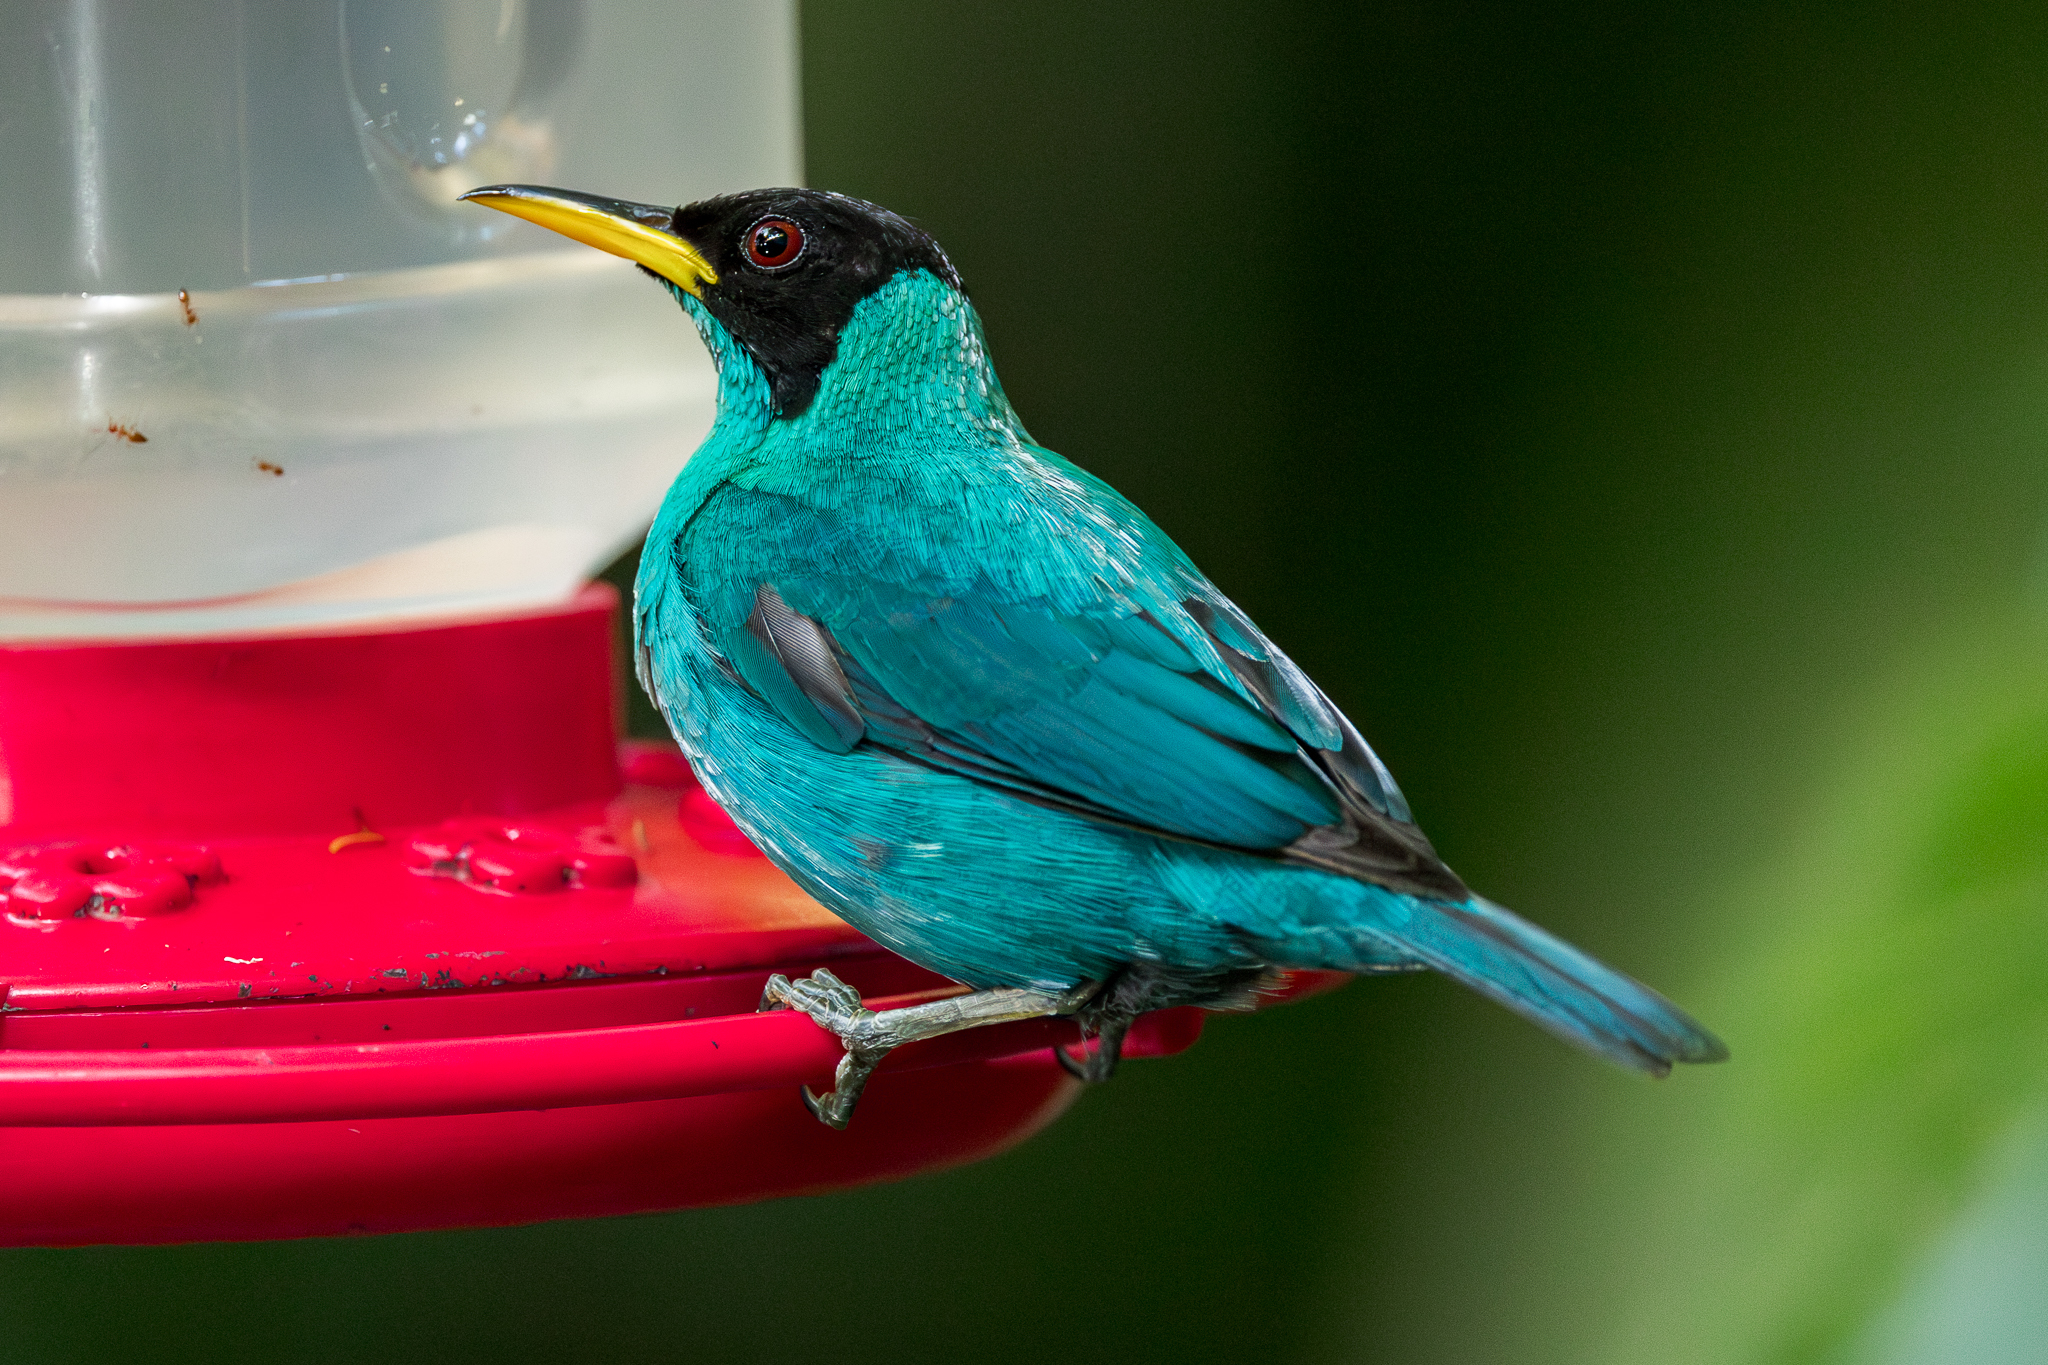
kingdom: Animalia
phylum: Chordata
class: Aves
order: Passeriformes
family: Thraupidae
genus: Chlorophanes
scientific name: Chlorophanes spiza
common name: Green honeycreeper
